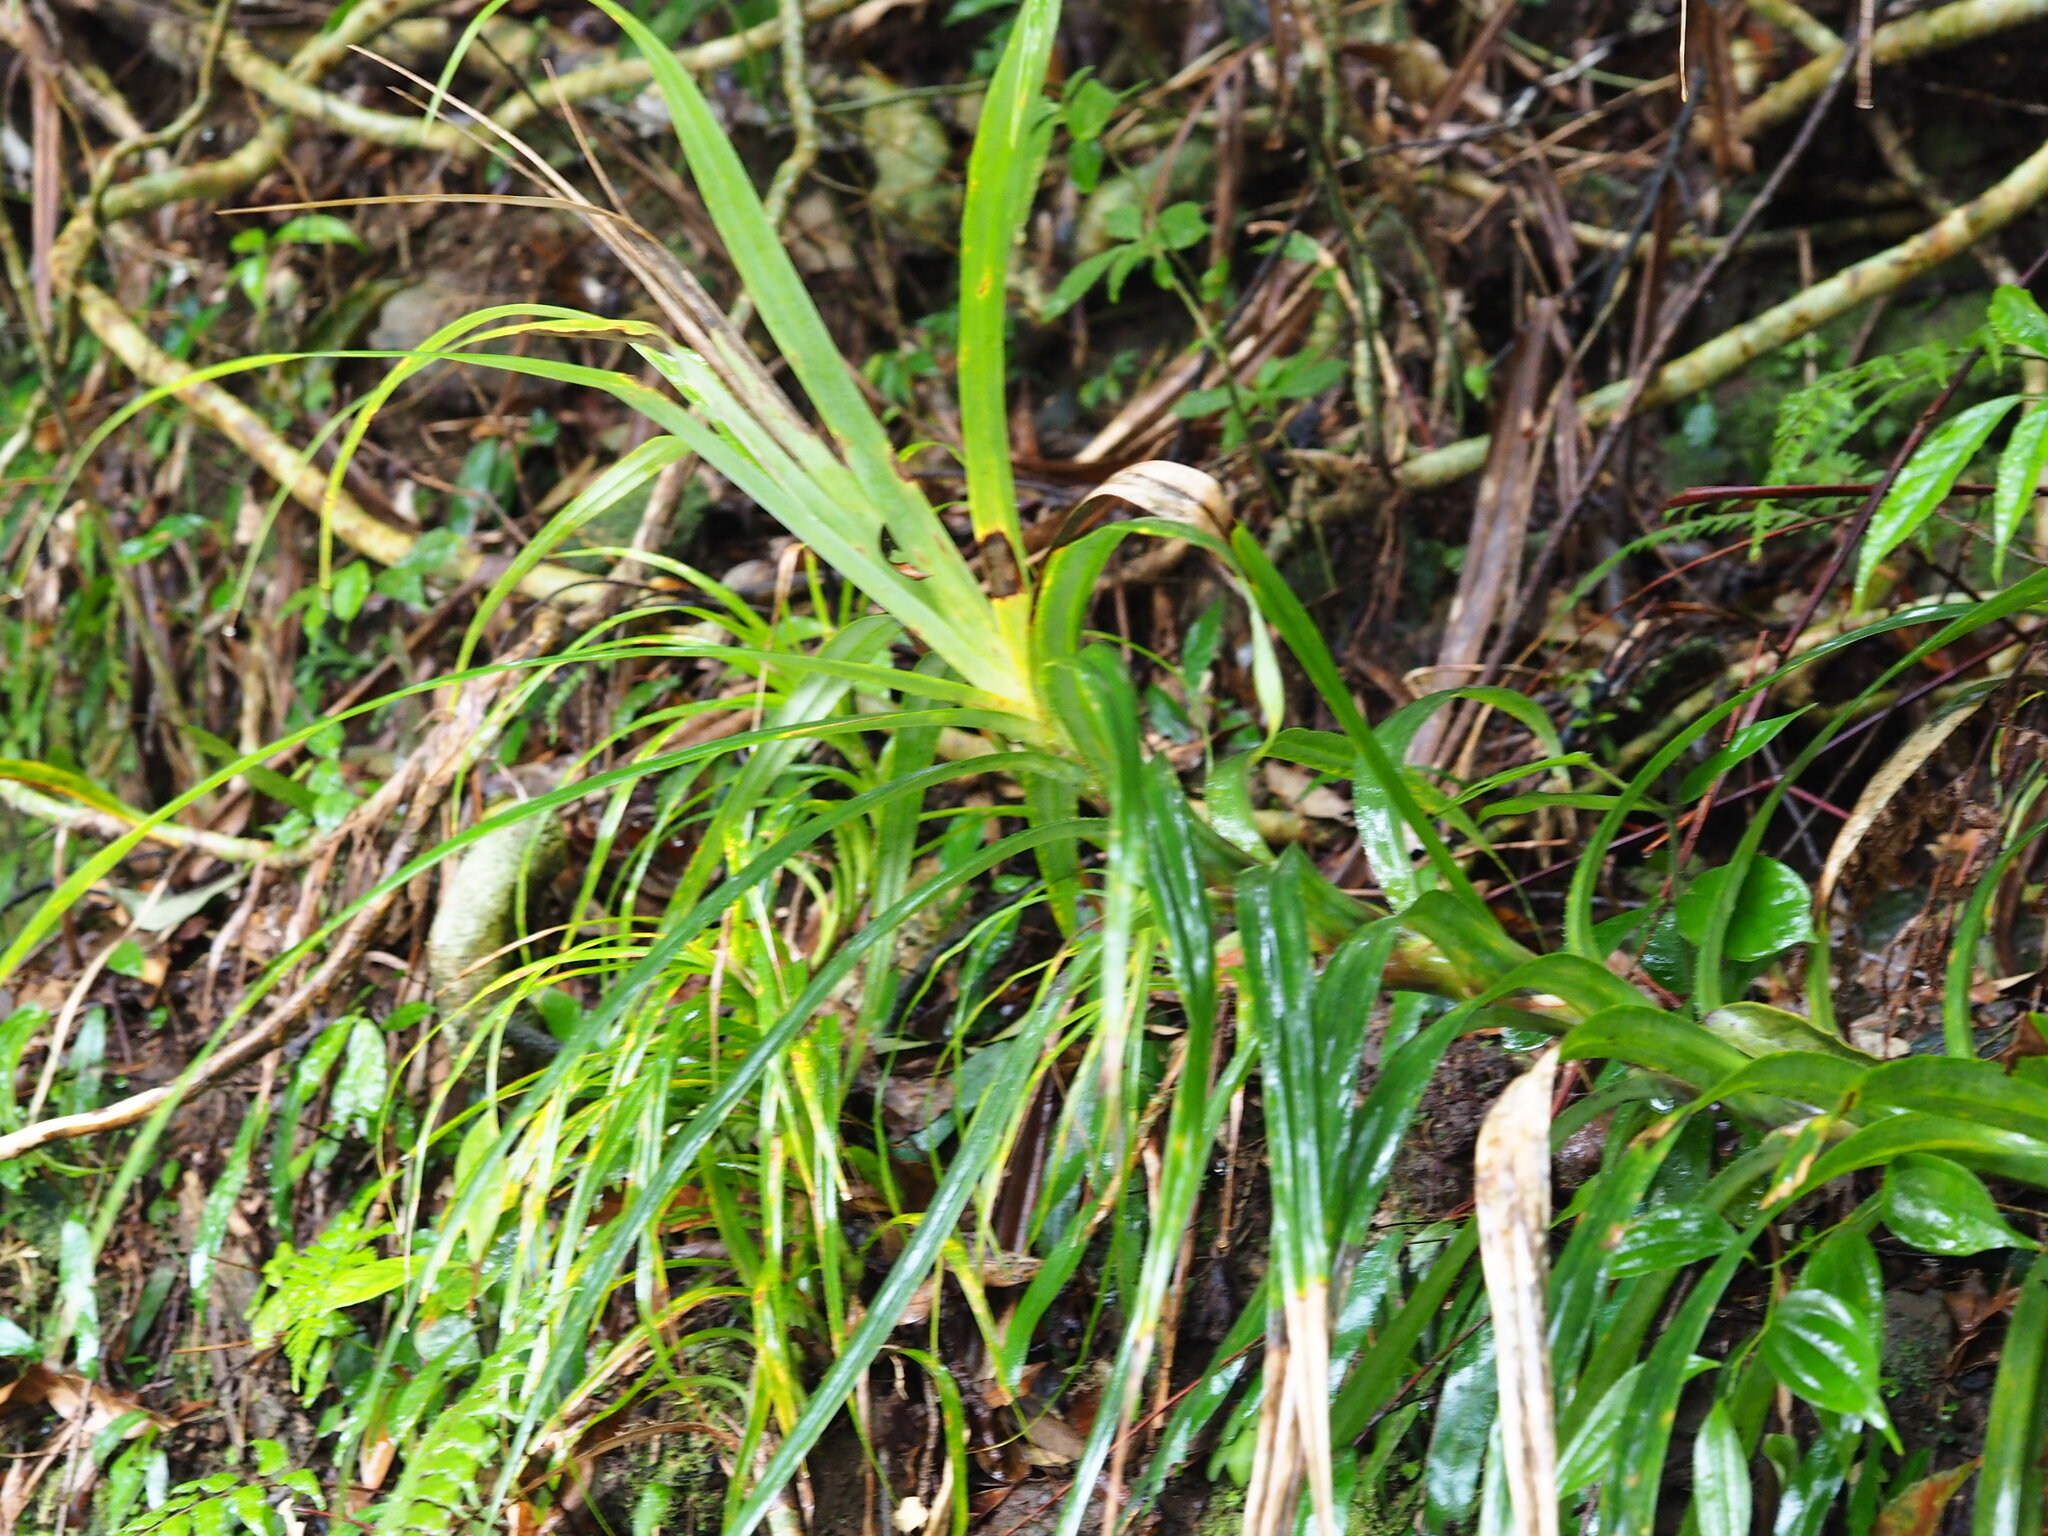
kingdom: Plantae
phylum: Tracheophyta
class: Liliopsida
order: Pandanales
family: Pandanaceae
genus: Freycinetia
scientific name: Freycinetia formosana
